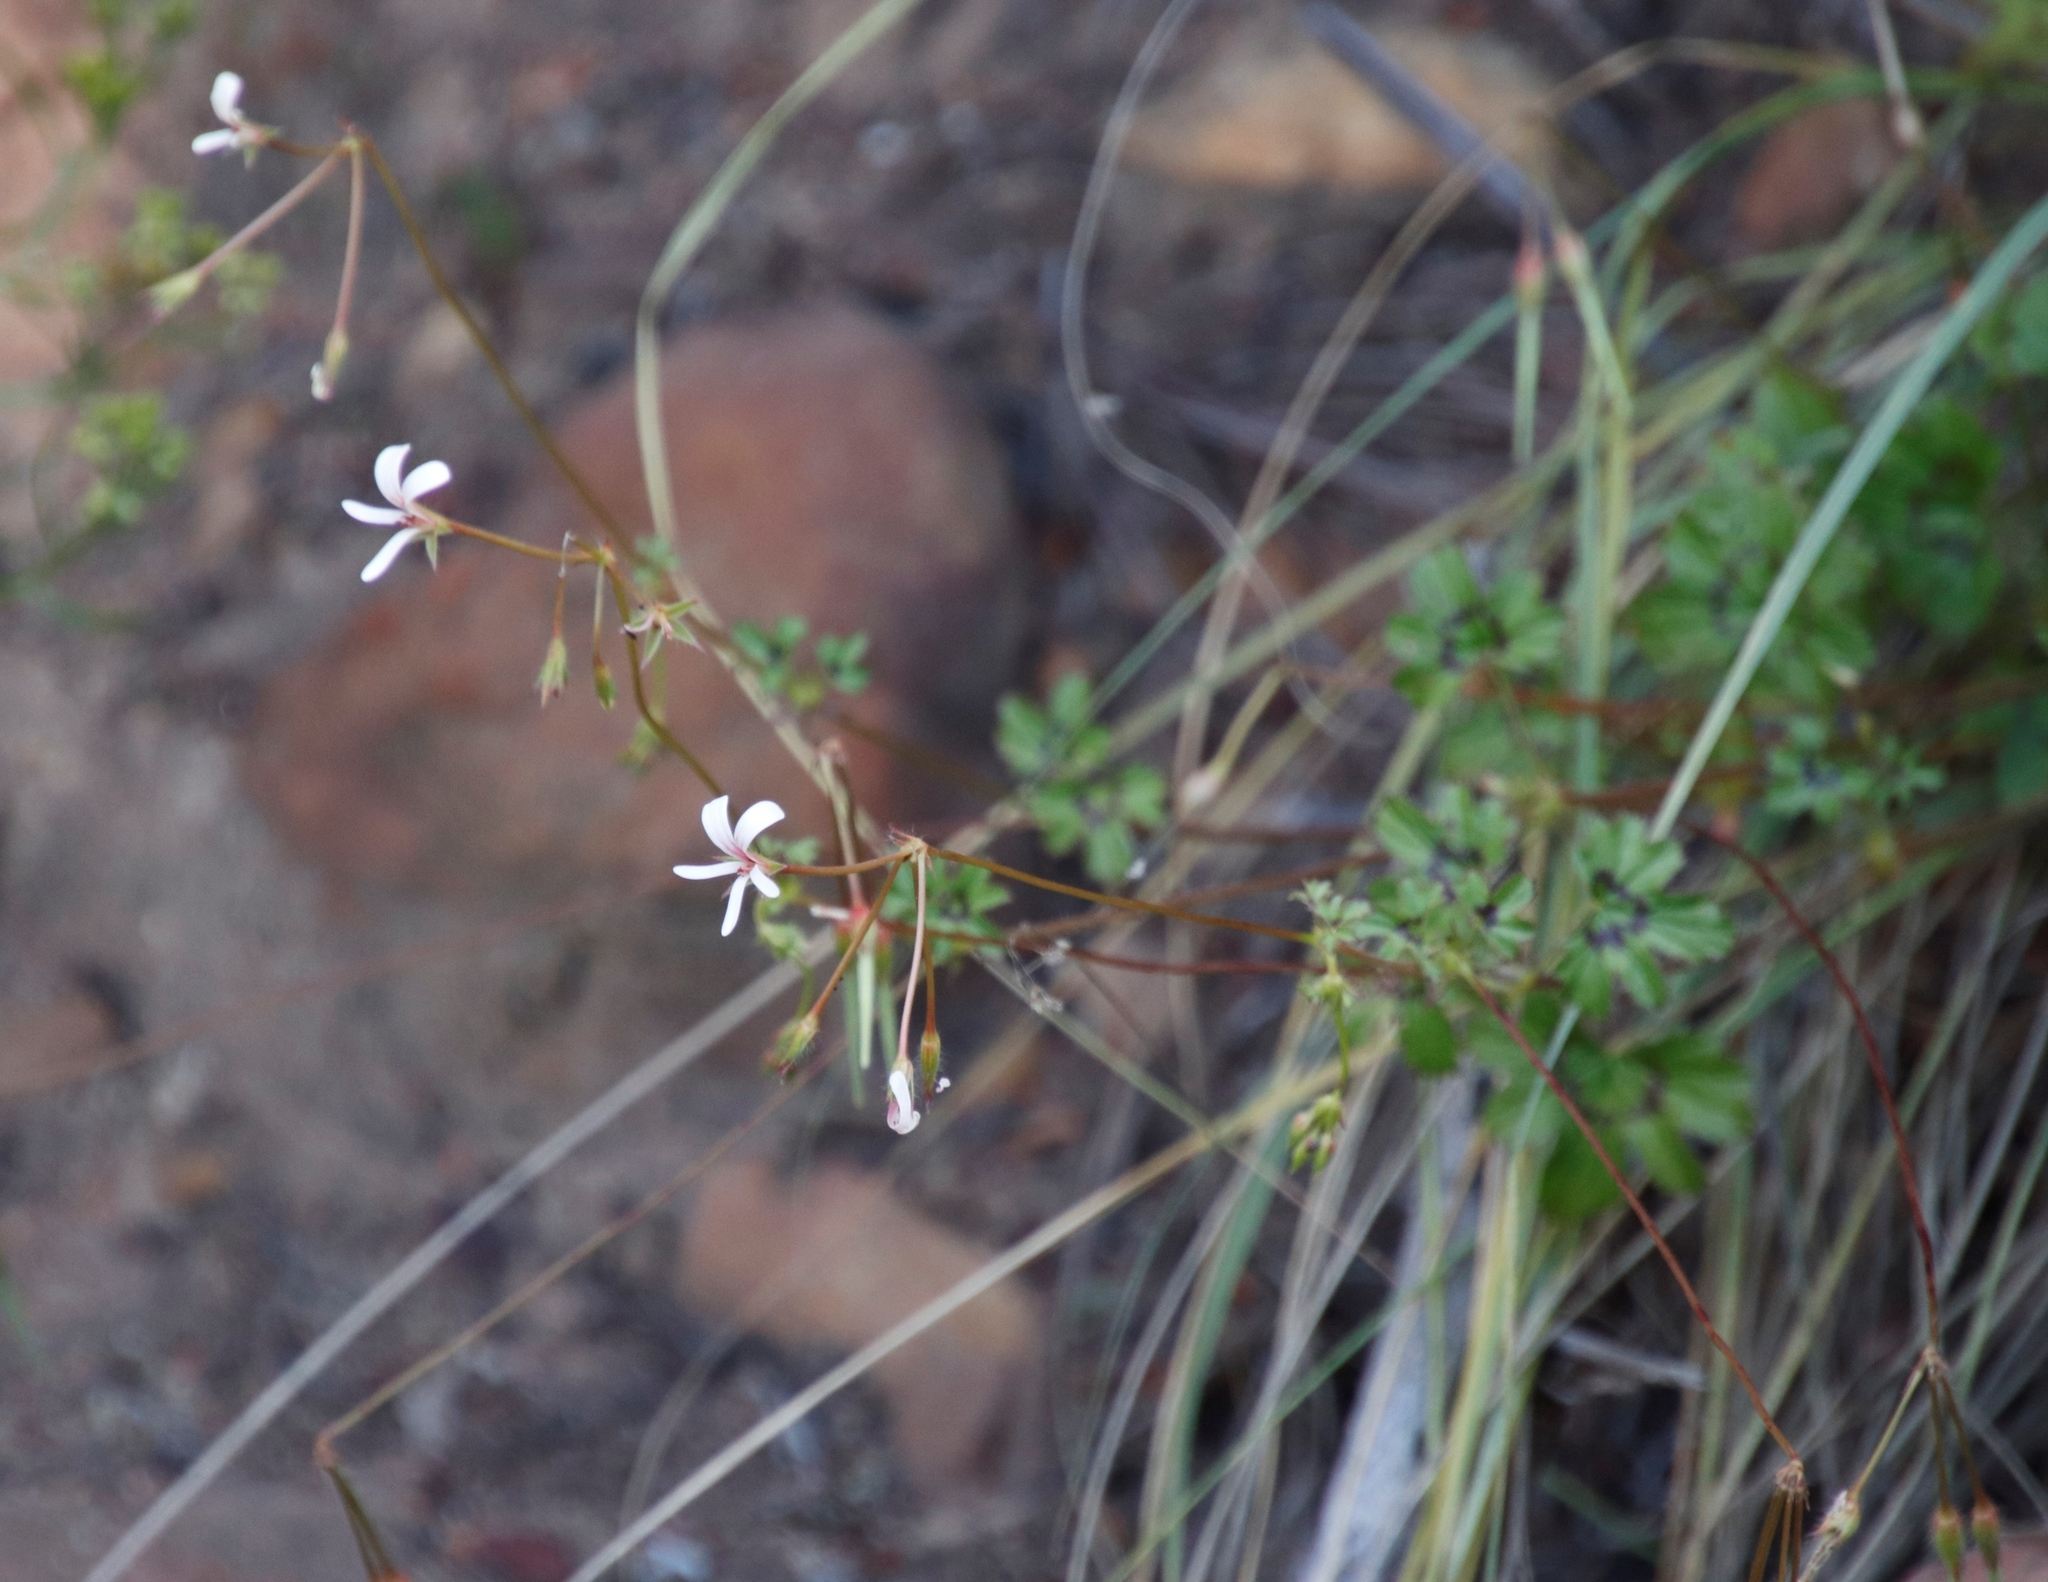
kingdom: Plantae
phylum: Tracheophyta
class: Magnoliopsida
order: Geraniales
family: Geraniaceae
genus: Pelargonium
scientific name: Pelargonium elongatum
